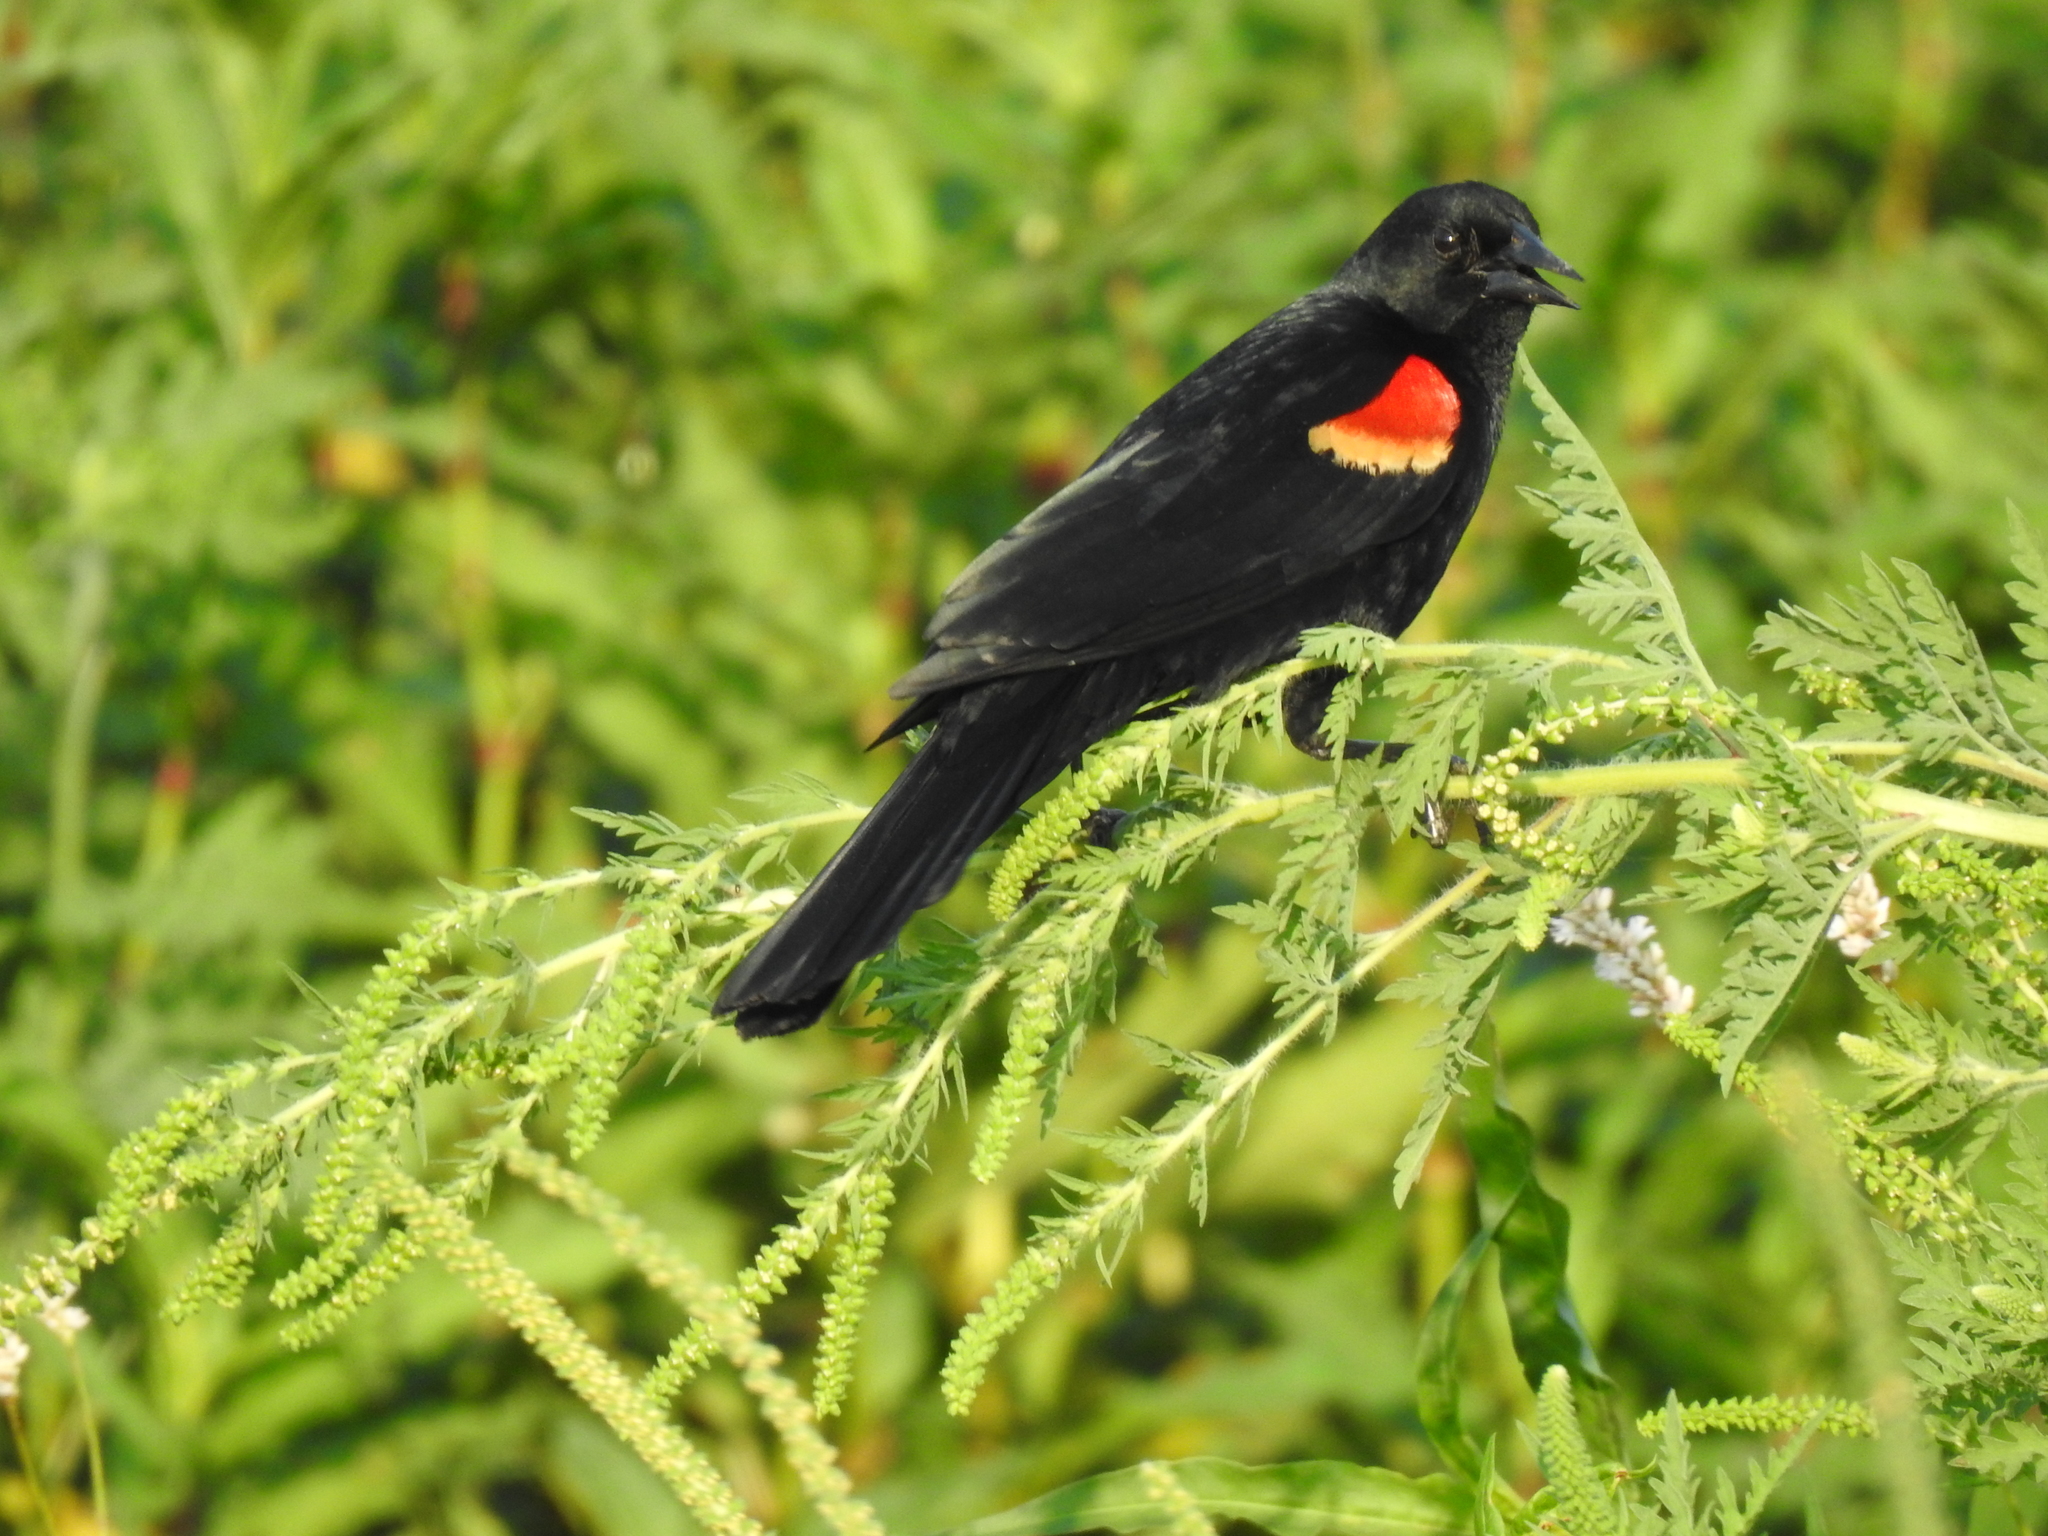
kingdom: Animalia
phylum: Chordata
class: Aves
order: Passeriformes
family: Icteridae
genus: Agelaius
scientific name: Agelaius phoeniceus
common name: Red-winged blackbird
